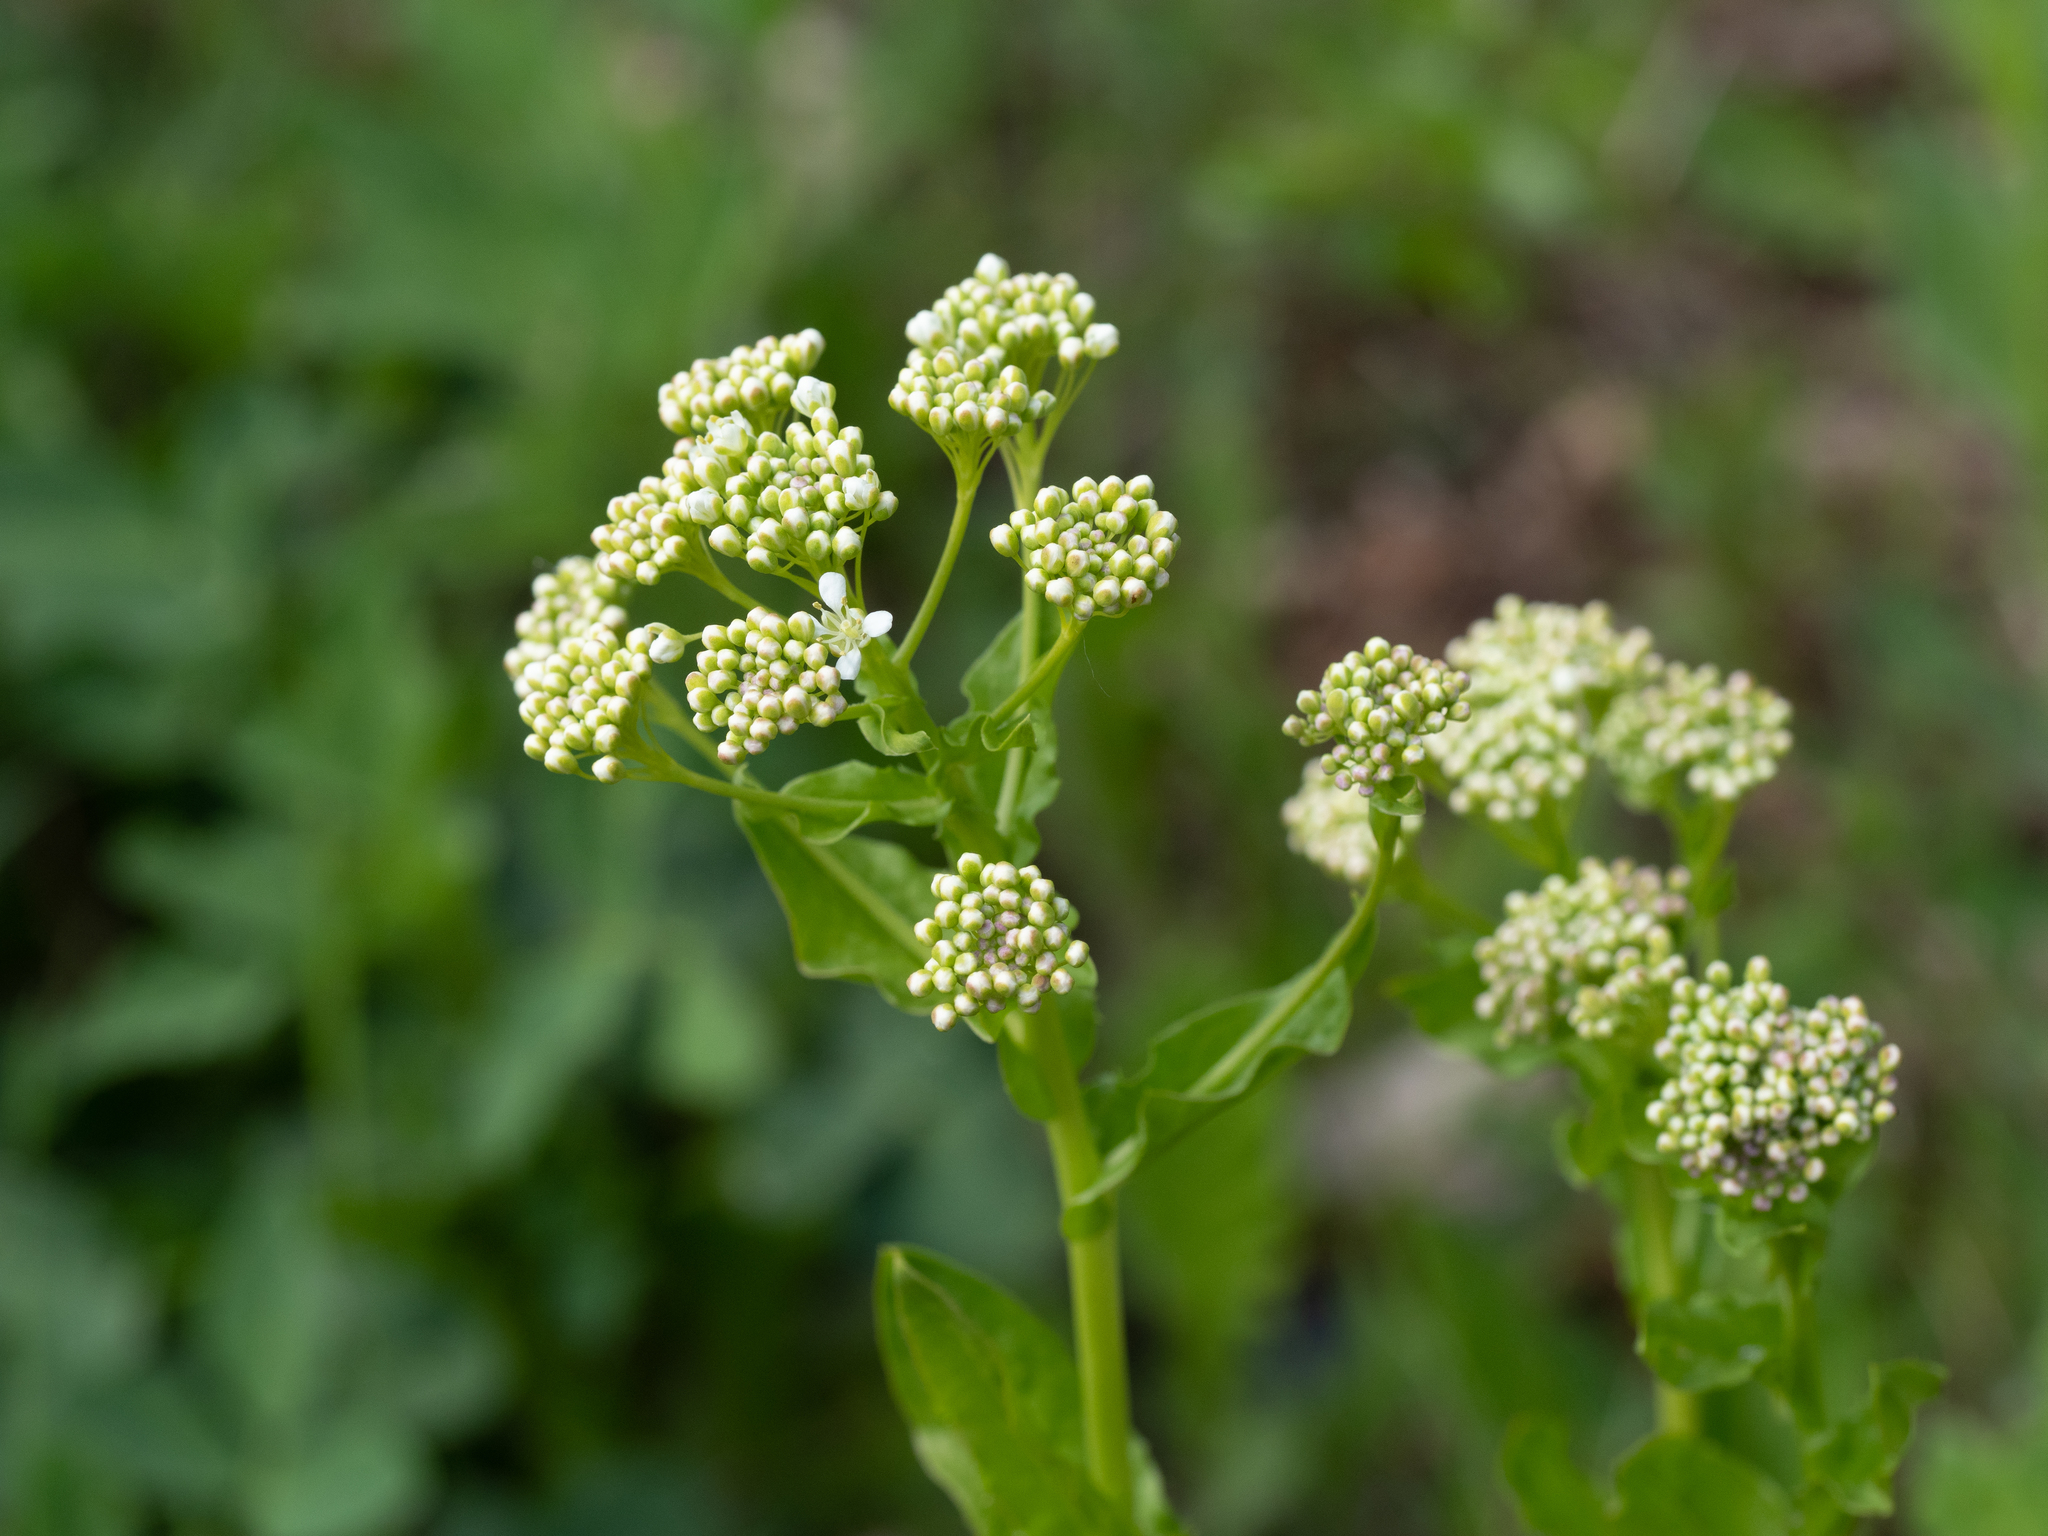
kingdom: Plantae
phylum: Tracheophyta
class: Magnoliopsida
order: Brassicales
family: Brassicaceae
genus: Lepidium
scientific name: Lepidium draba
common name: Hoary cress
